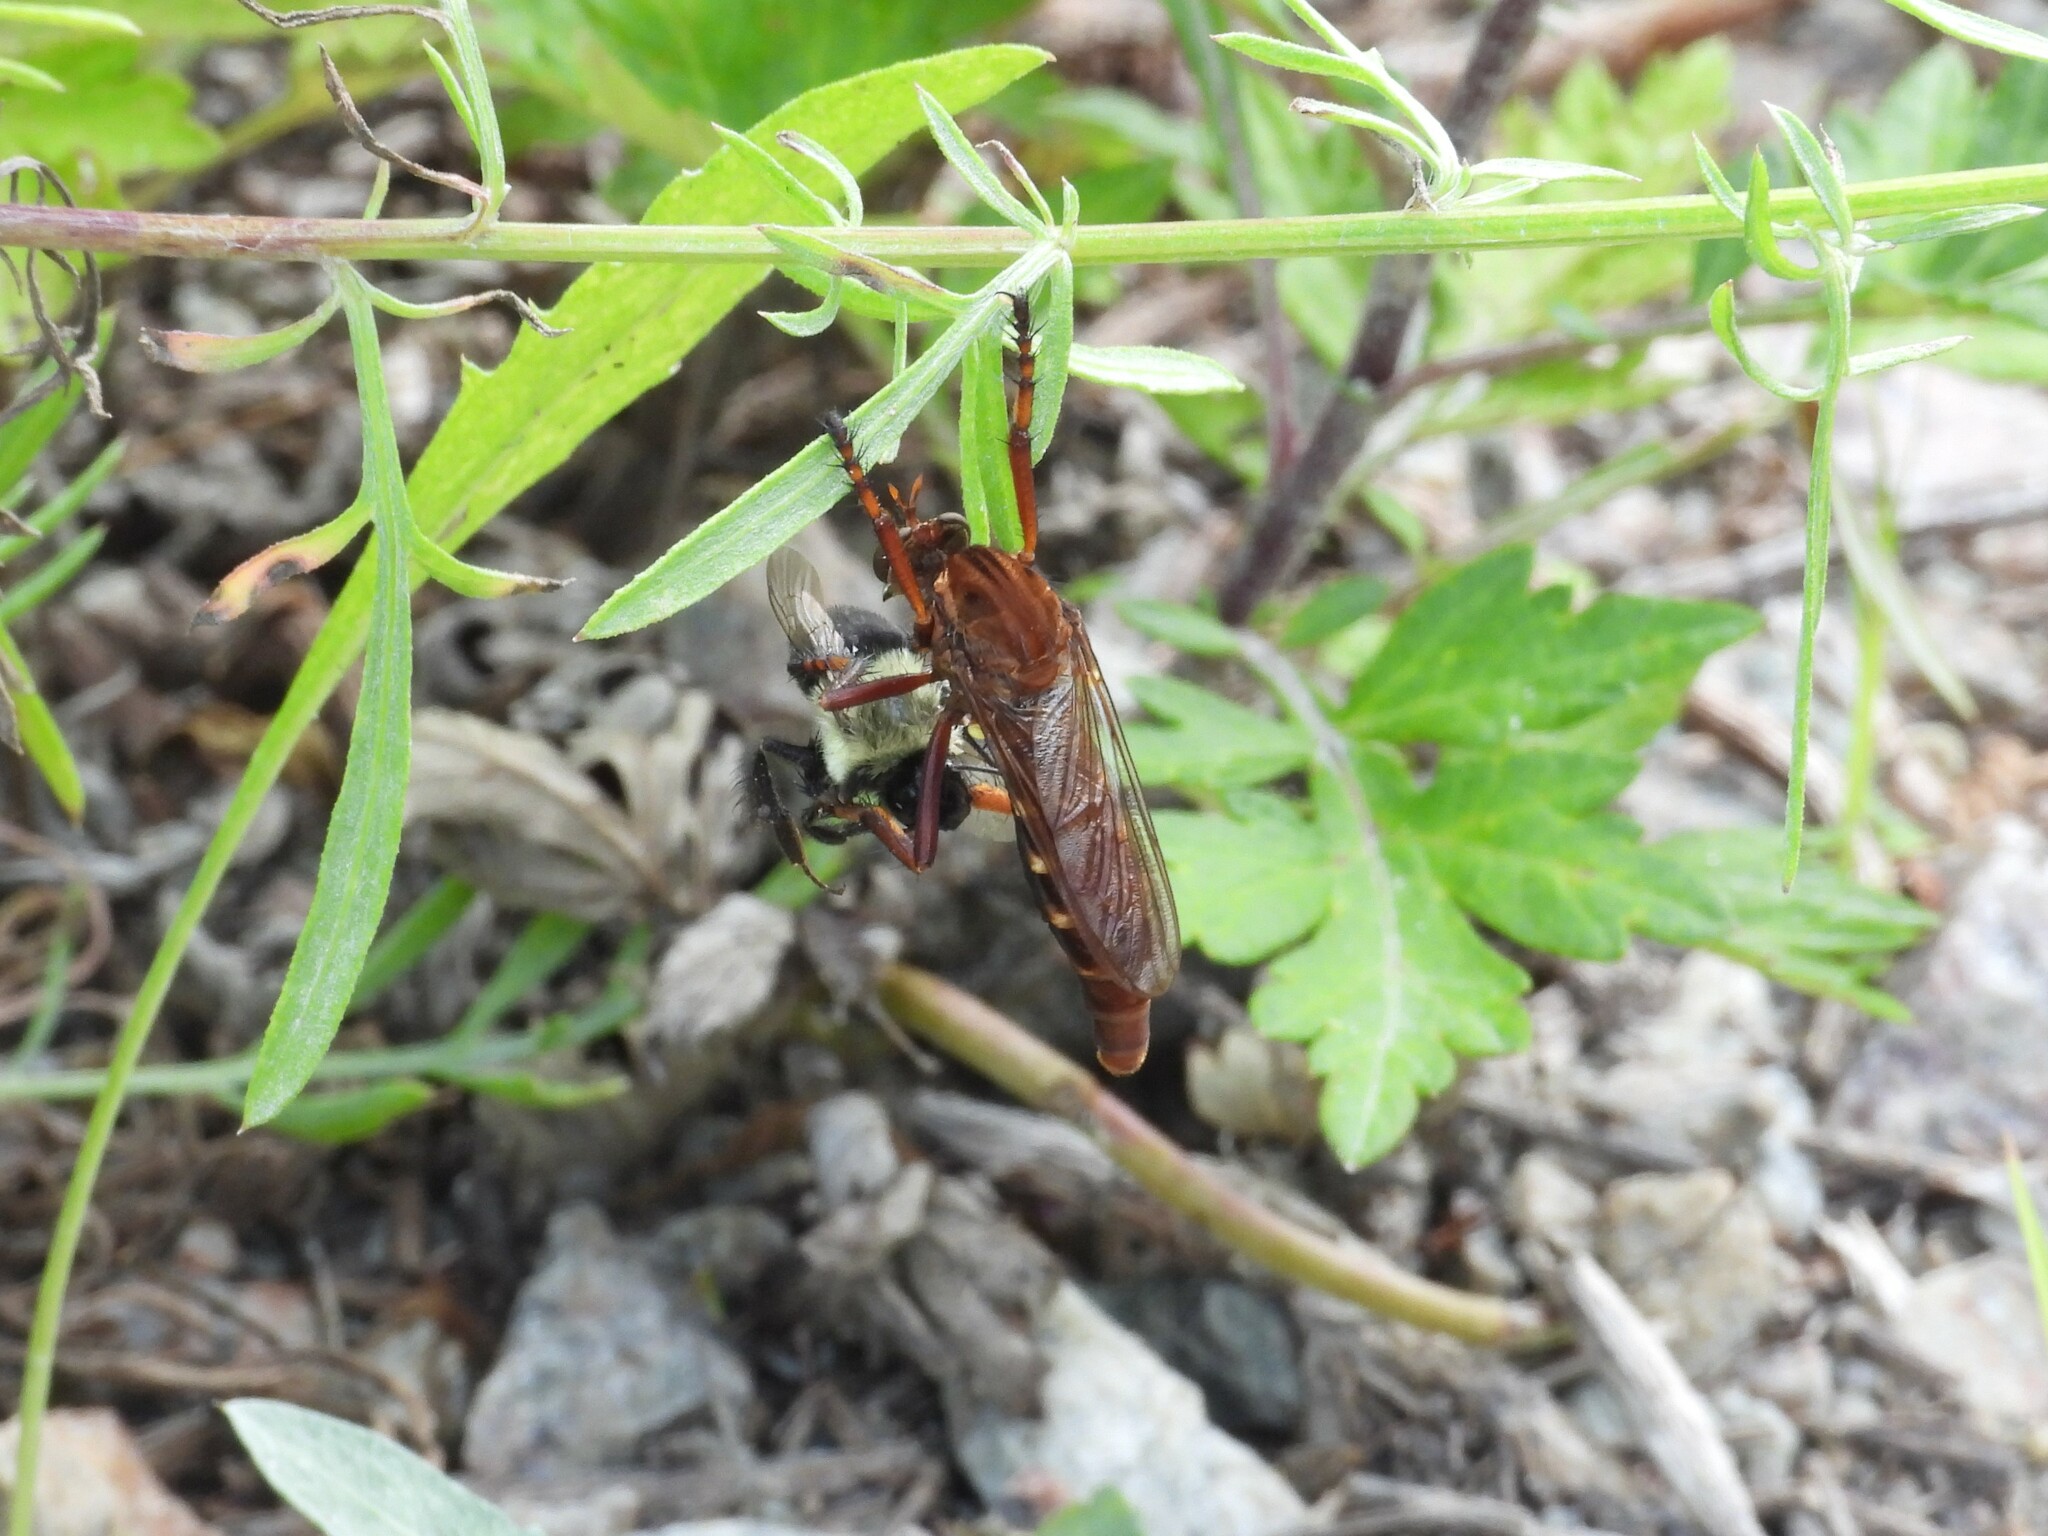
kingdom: Animalia
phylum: Arthropoda
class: Insecta
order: Diptera
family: Asilidae
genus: Diogmites
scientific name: Diogmites basalis
